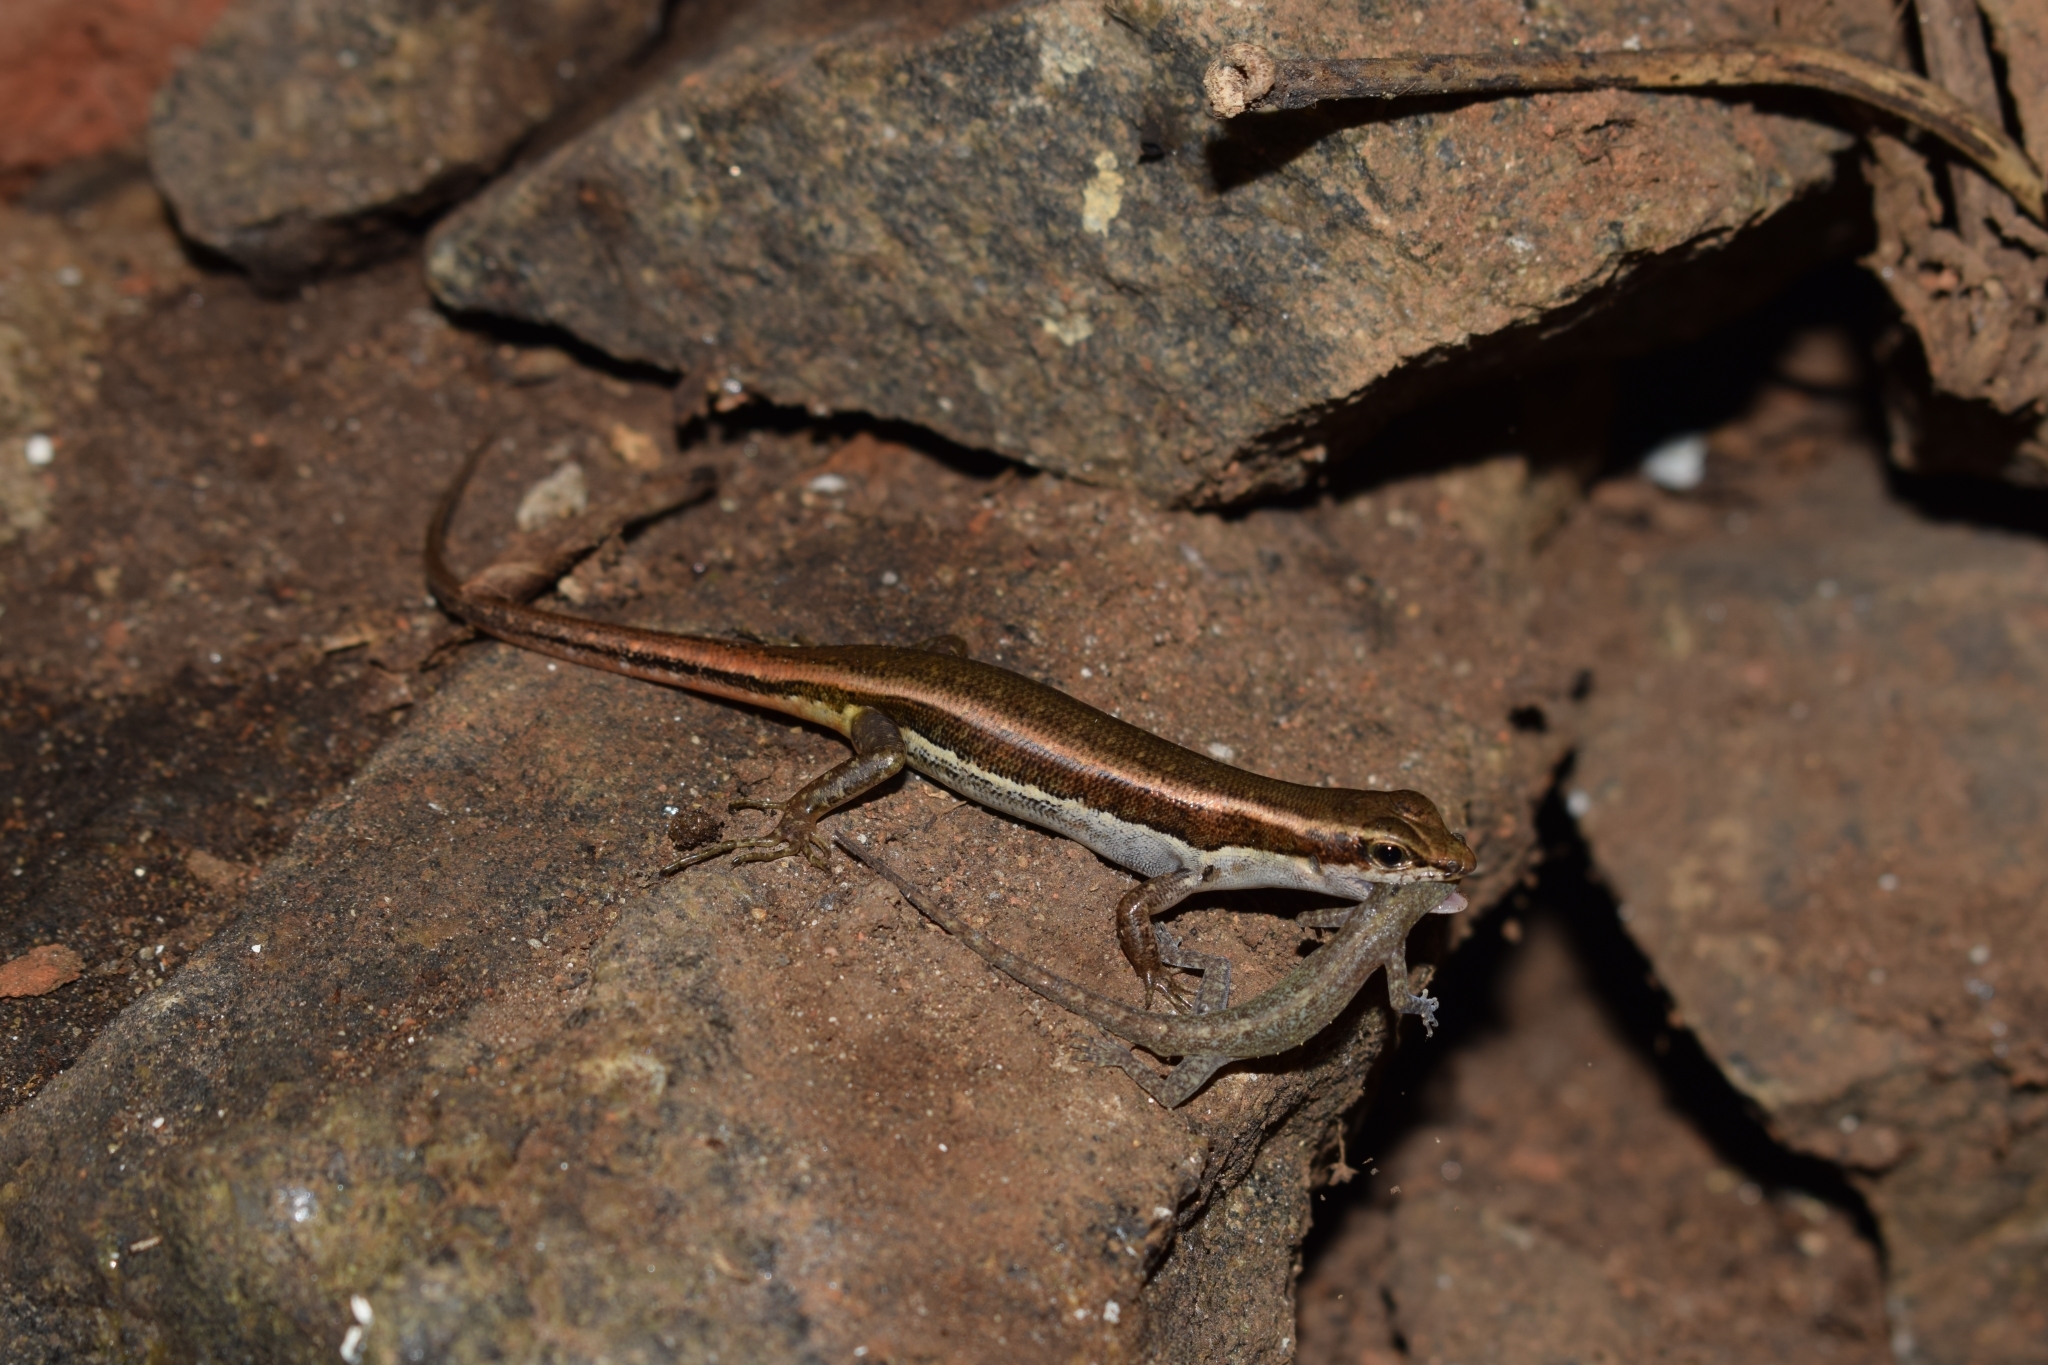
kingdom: Animalia
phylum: Chordata
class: Squamata
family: Scincidae
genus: Sphenomorphus
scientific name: Sphenomorphus dussumieri
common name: Dussumier's forest skink
